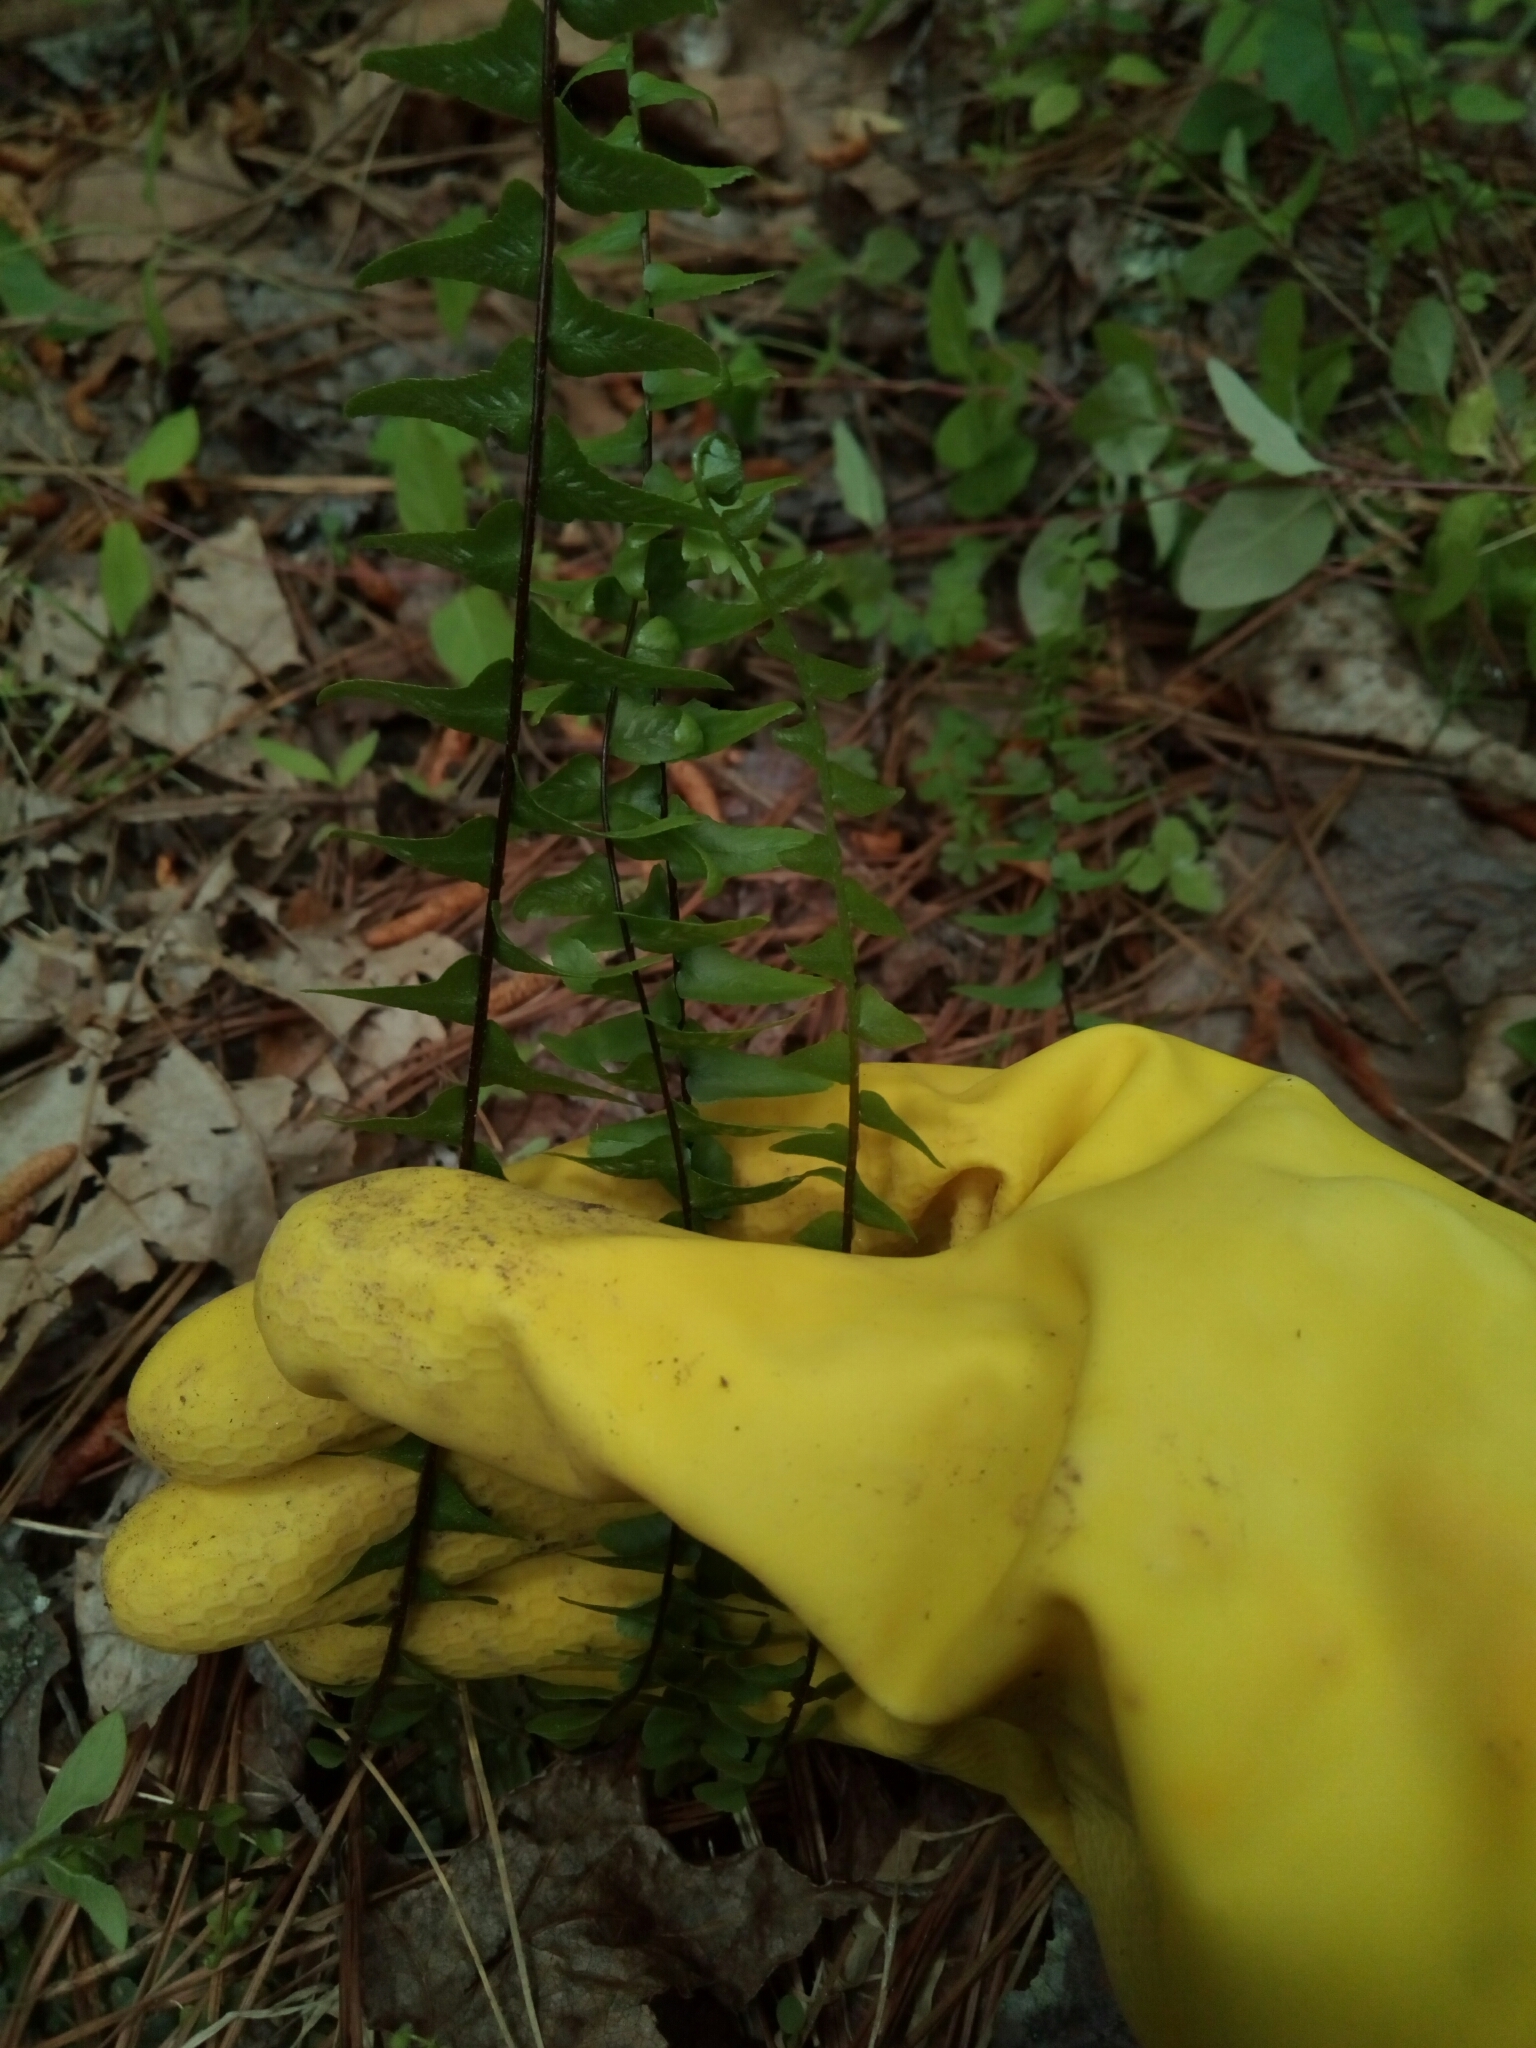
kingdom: Plantae
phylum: Tracheophyta
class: Polypodiopsida
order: Polypodiales
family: Aspleniaceae
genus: Asplenium
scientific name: Asplenium platyneuron
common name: Ebony spleenwort
